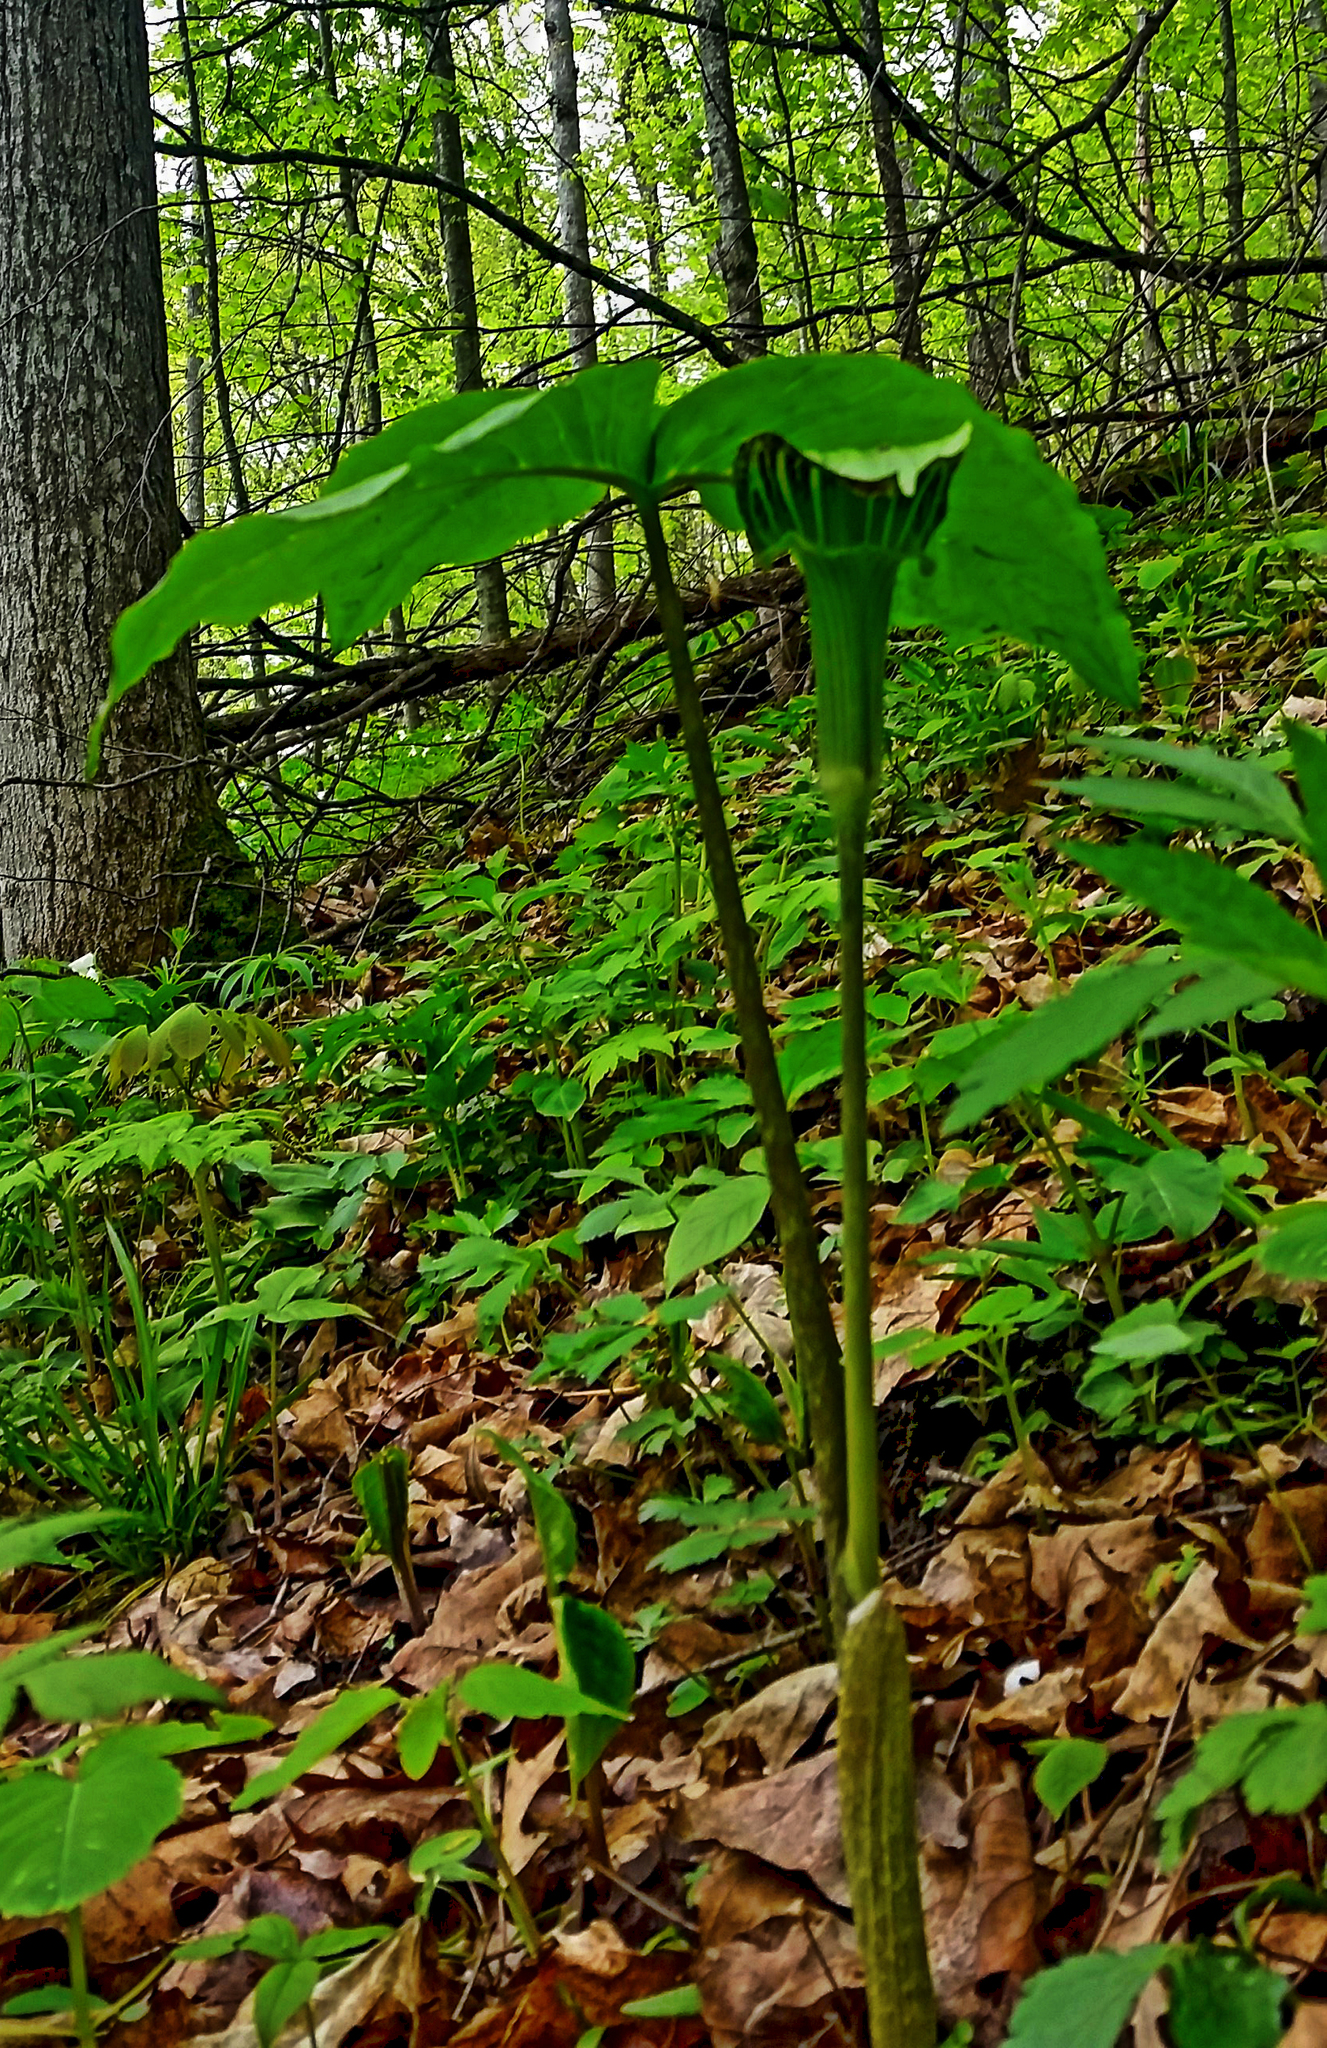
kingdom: Plantae
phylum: Tracheophyta
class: Liliopsida
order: Alismatales
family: Araceae
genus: Arisaema
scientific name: Arisaema triphyllum
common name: Jack-in-the-pulpit
